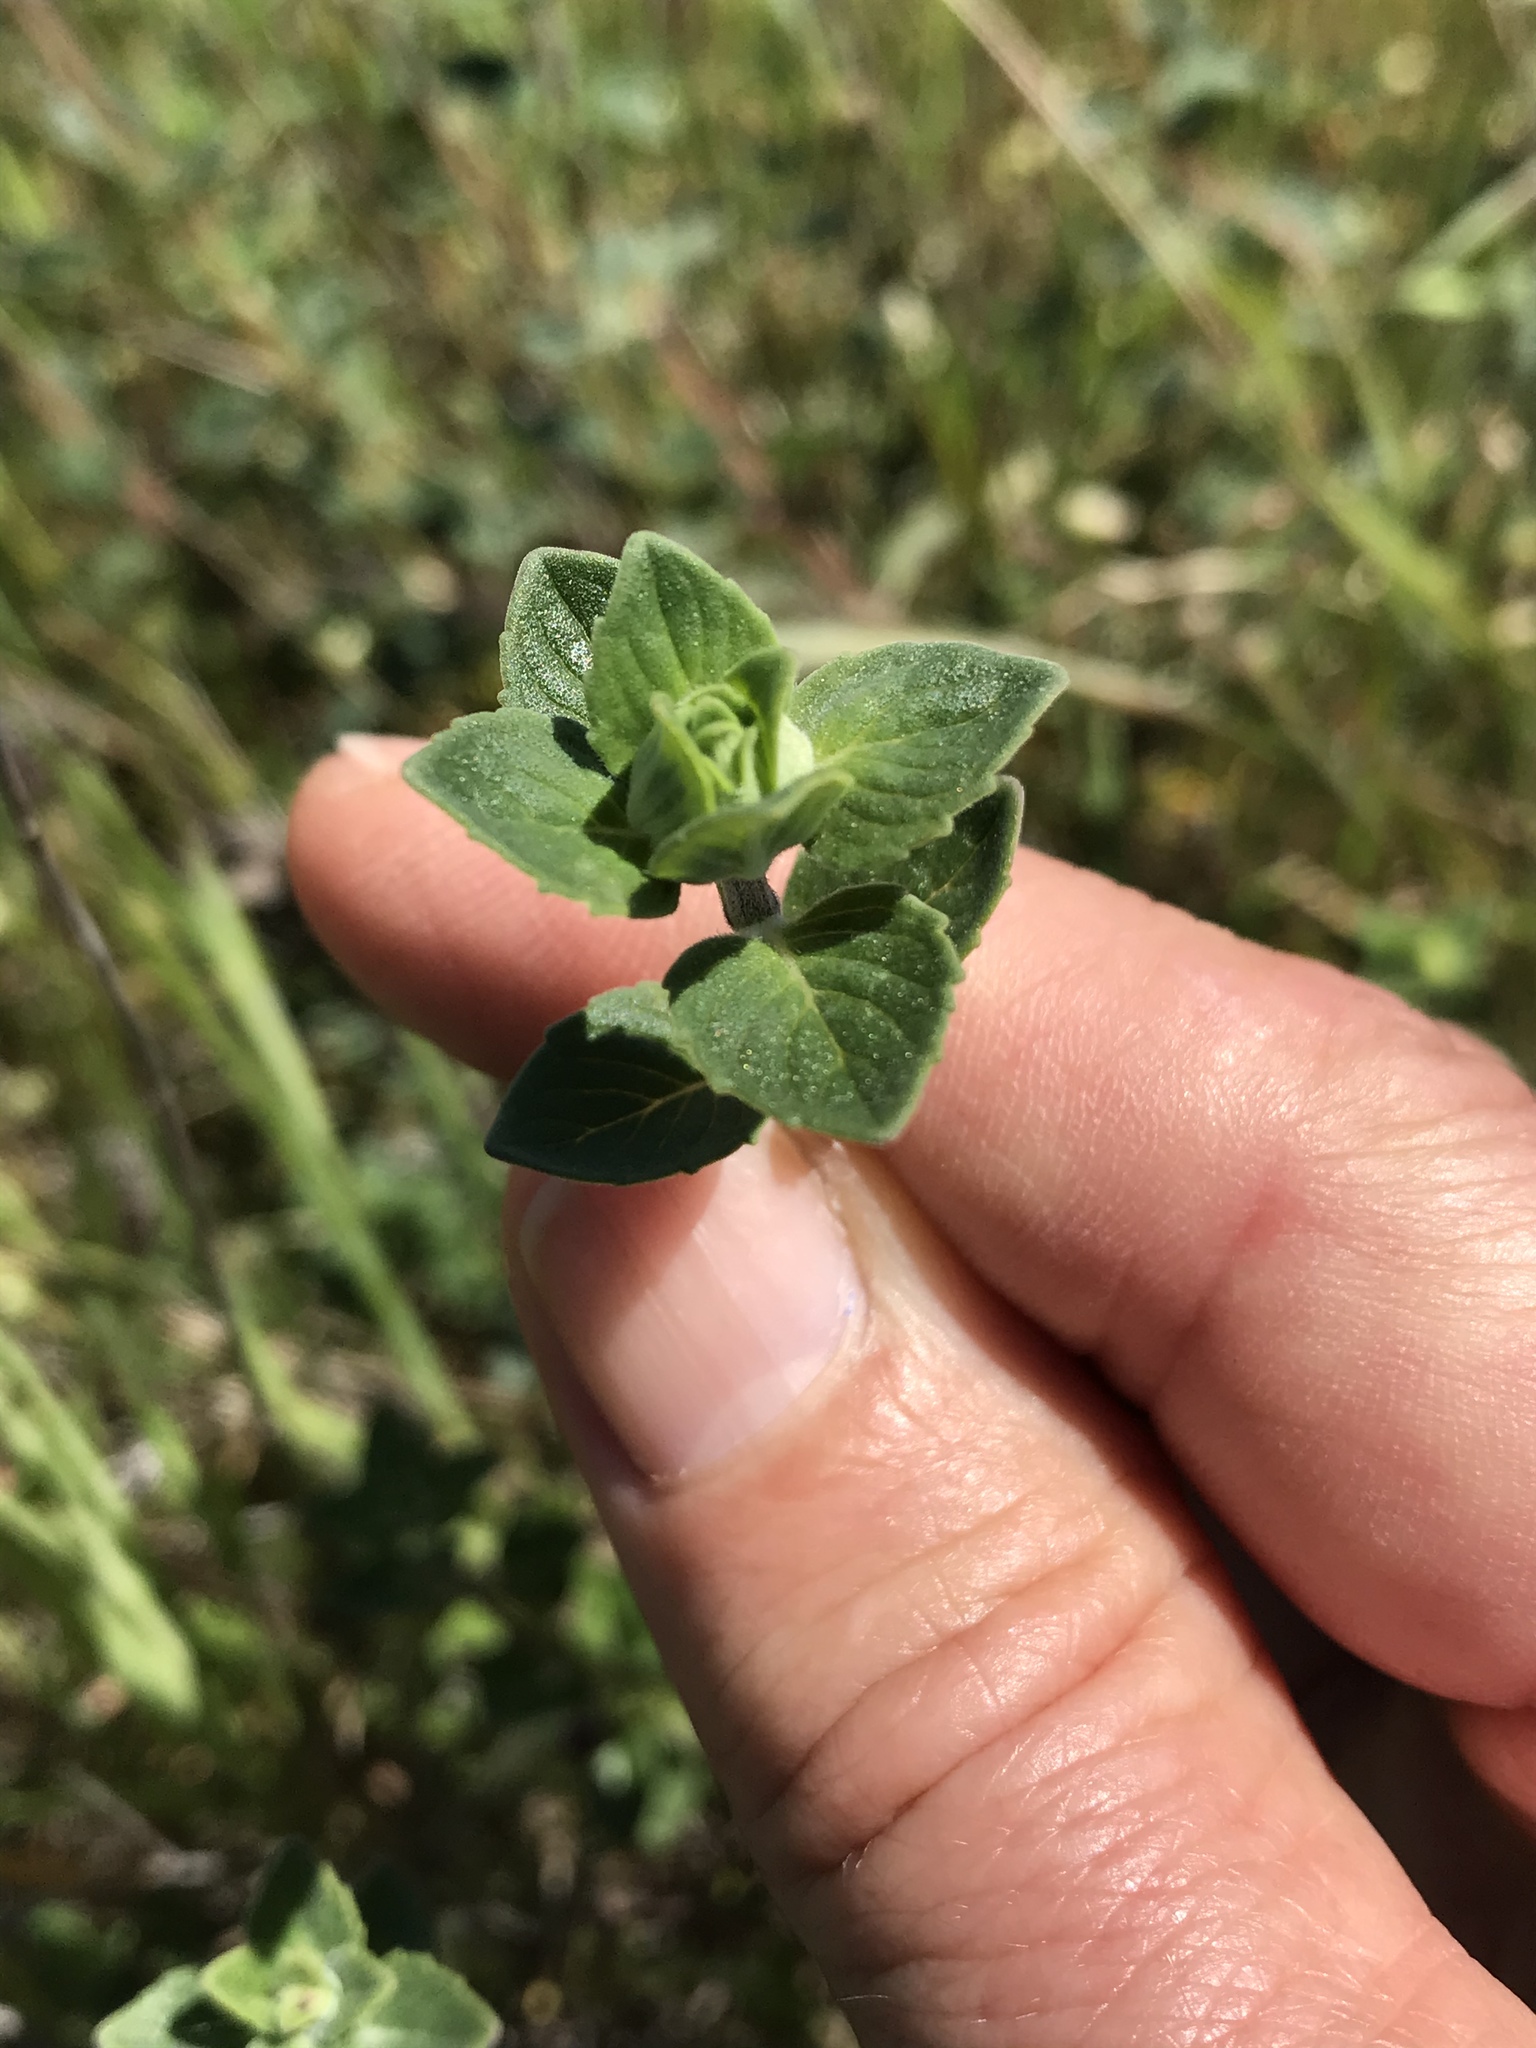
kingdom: Plantae
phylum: Tracheophyta
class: Magnoliopsida
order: Lamiales
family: Lamiaceae
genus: Monardella
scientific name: Monardella odoratissima
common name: Pacific monardella
